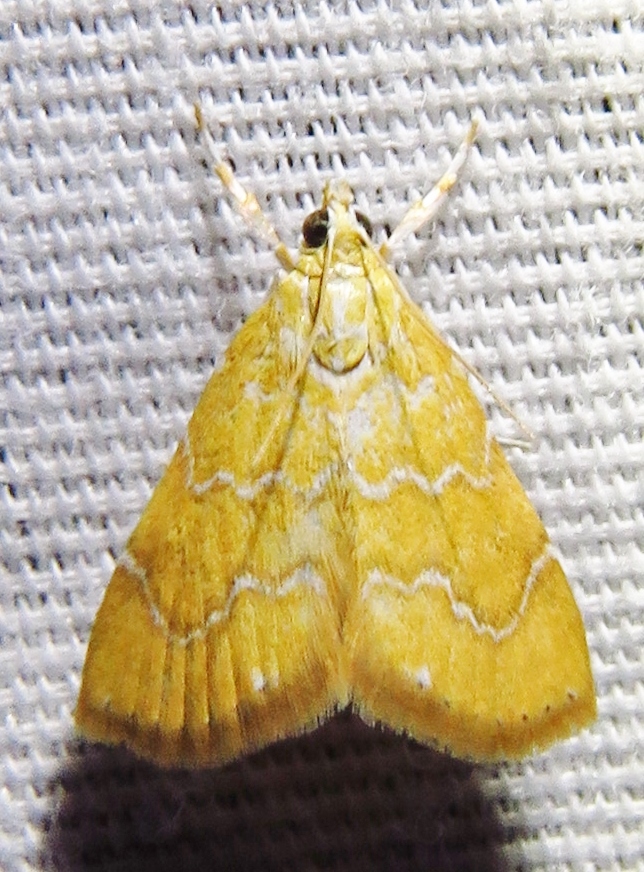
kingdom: Animalia
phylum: Arthropoda
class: Insecta
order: Lepidoptera
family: Crambidae
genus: Glaphyria
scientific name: Glaphyria sesquistrialis
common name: White-roped glaphyria
